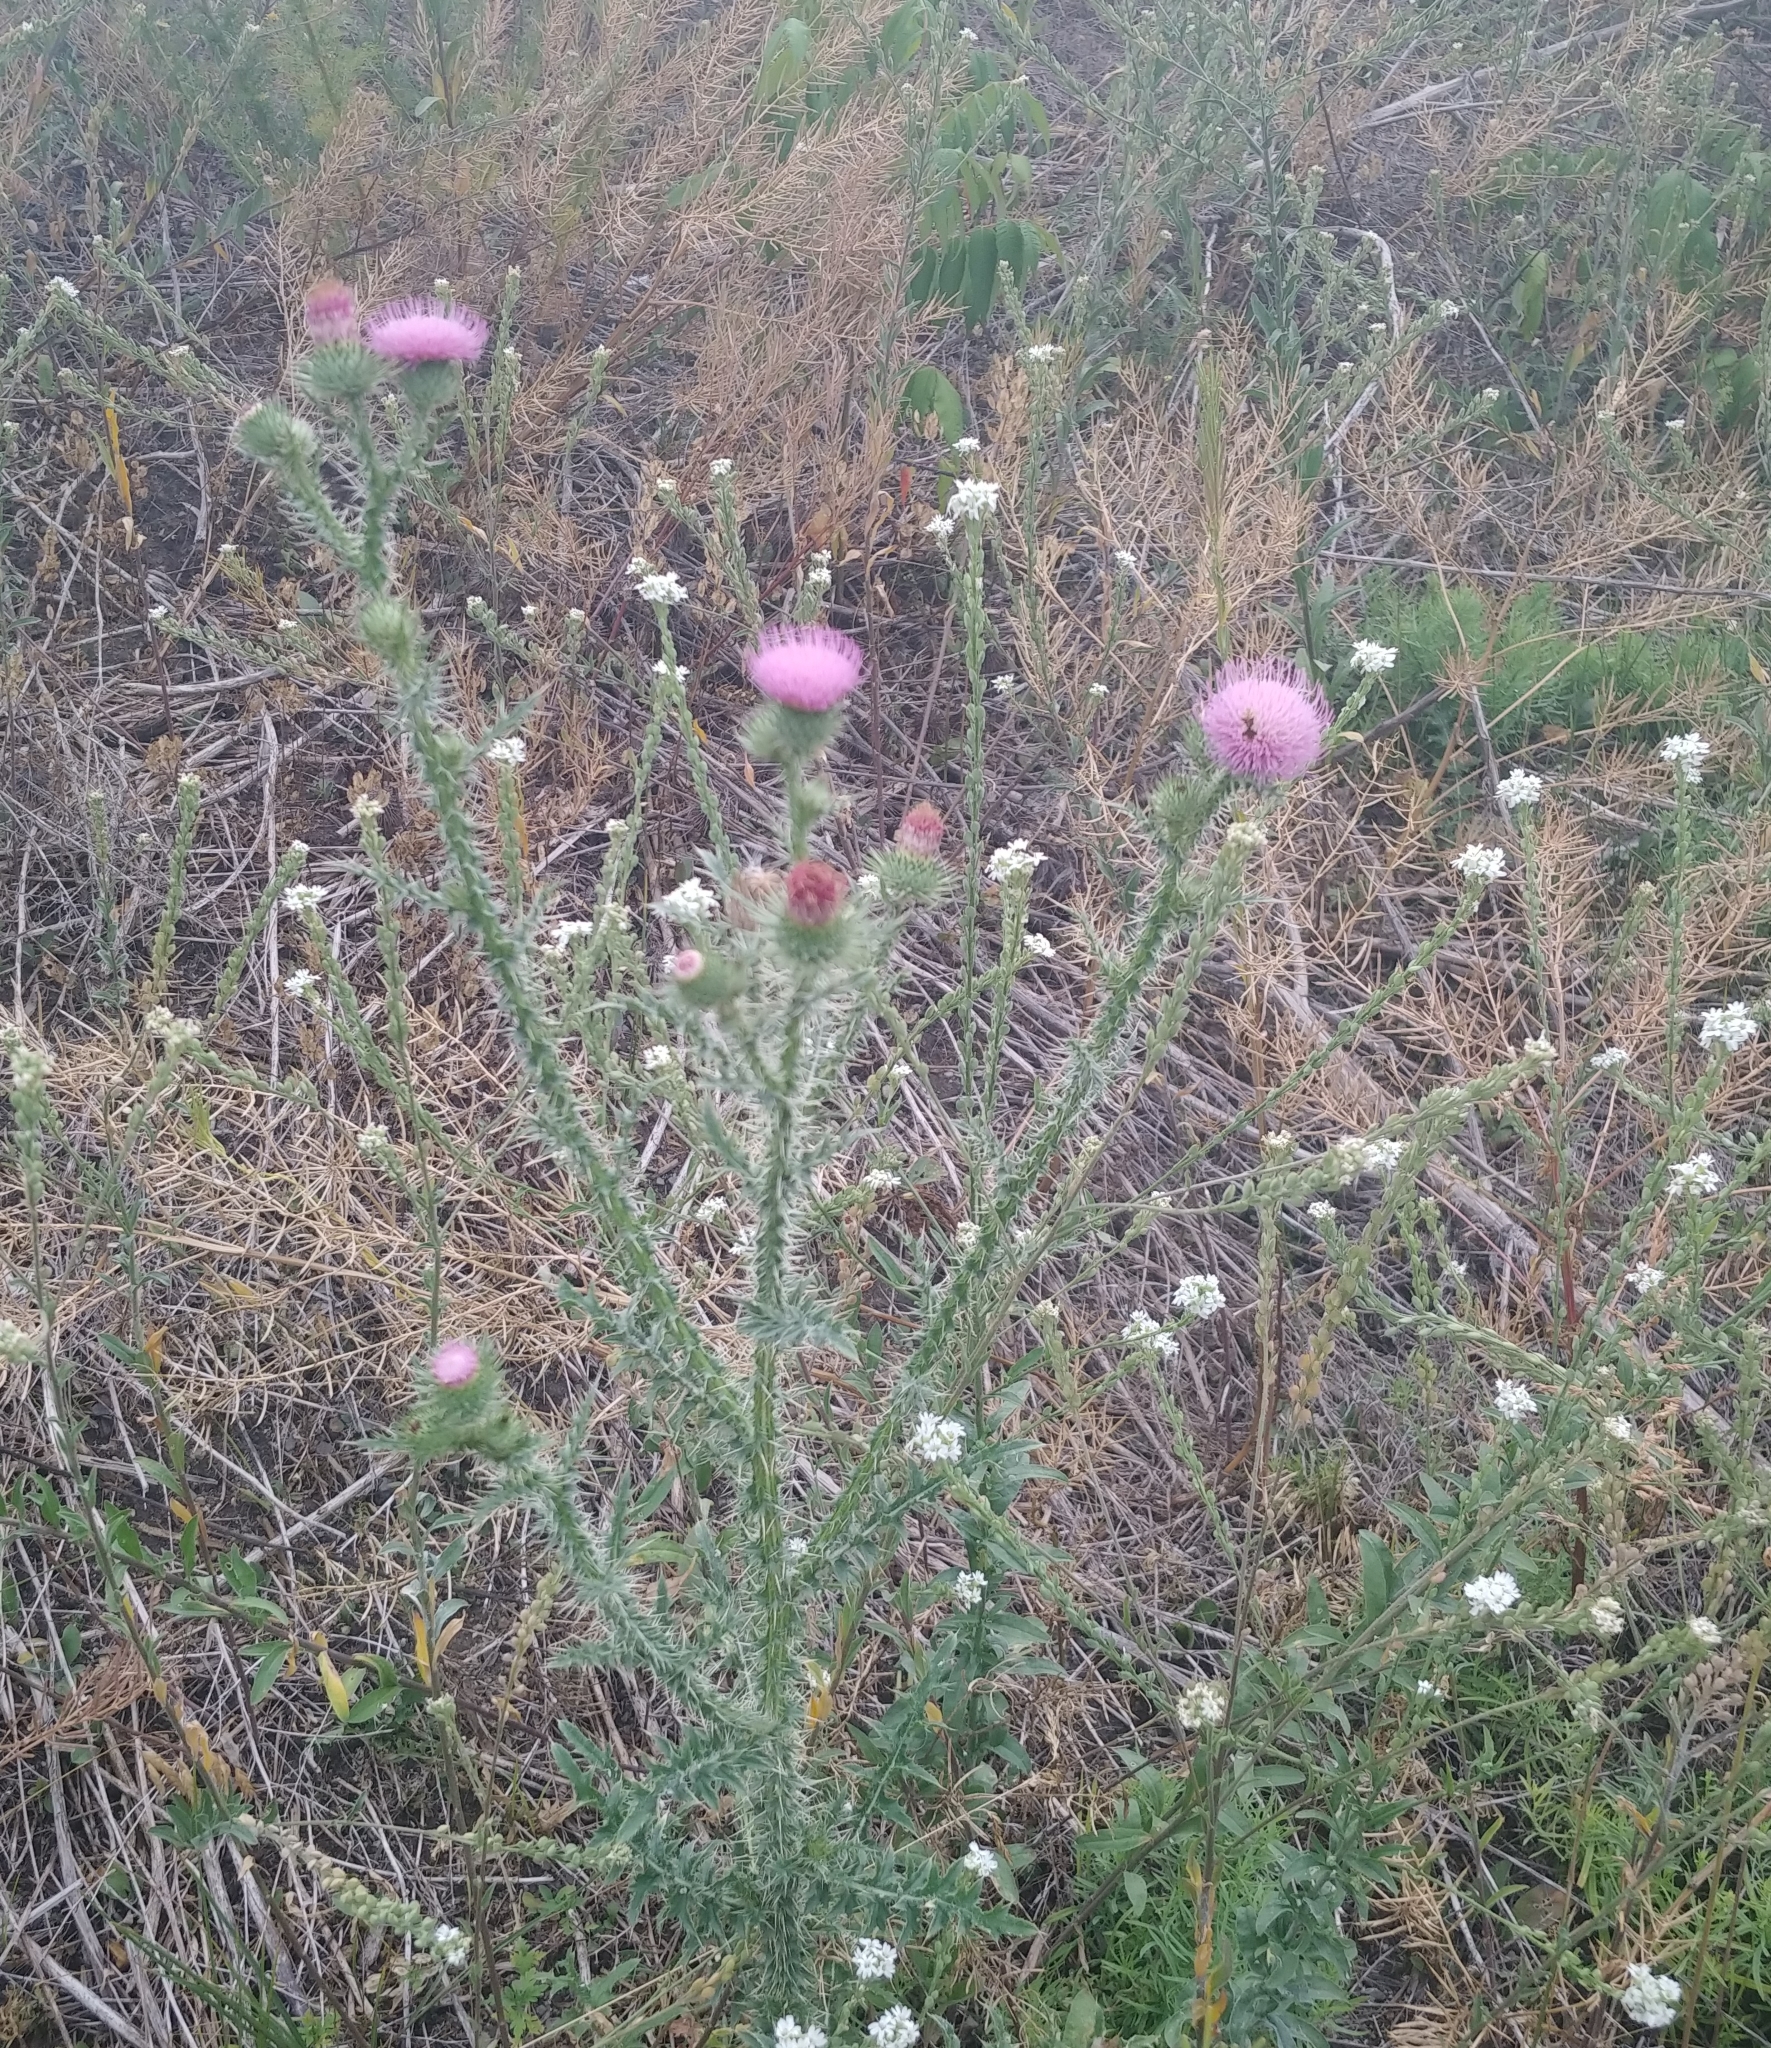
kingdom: Plantae
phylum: Tracheophyta
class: Magnoliopsida
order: Asterales
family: Asteraceae
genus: Carduus
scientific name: Carduus acanthoides
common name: Plumeless thistle
